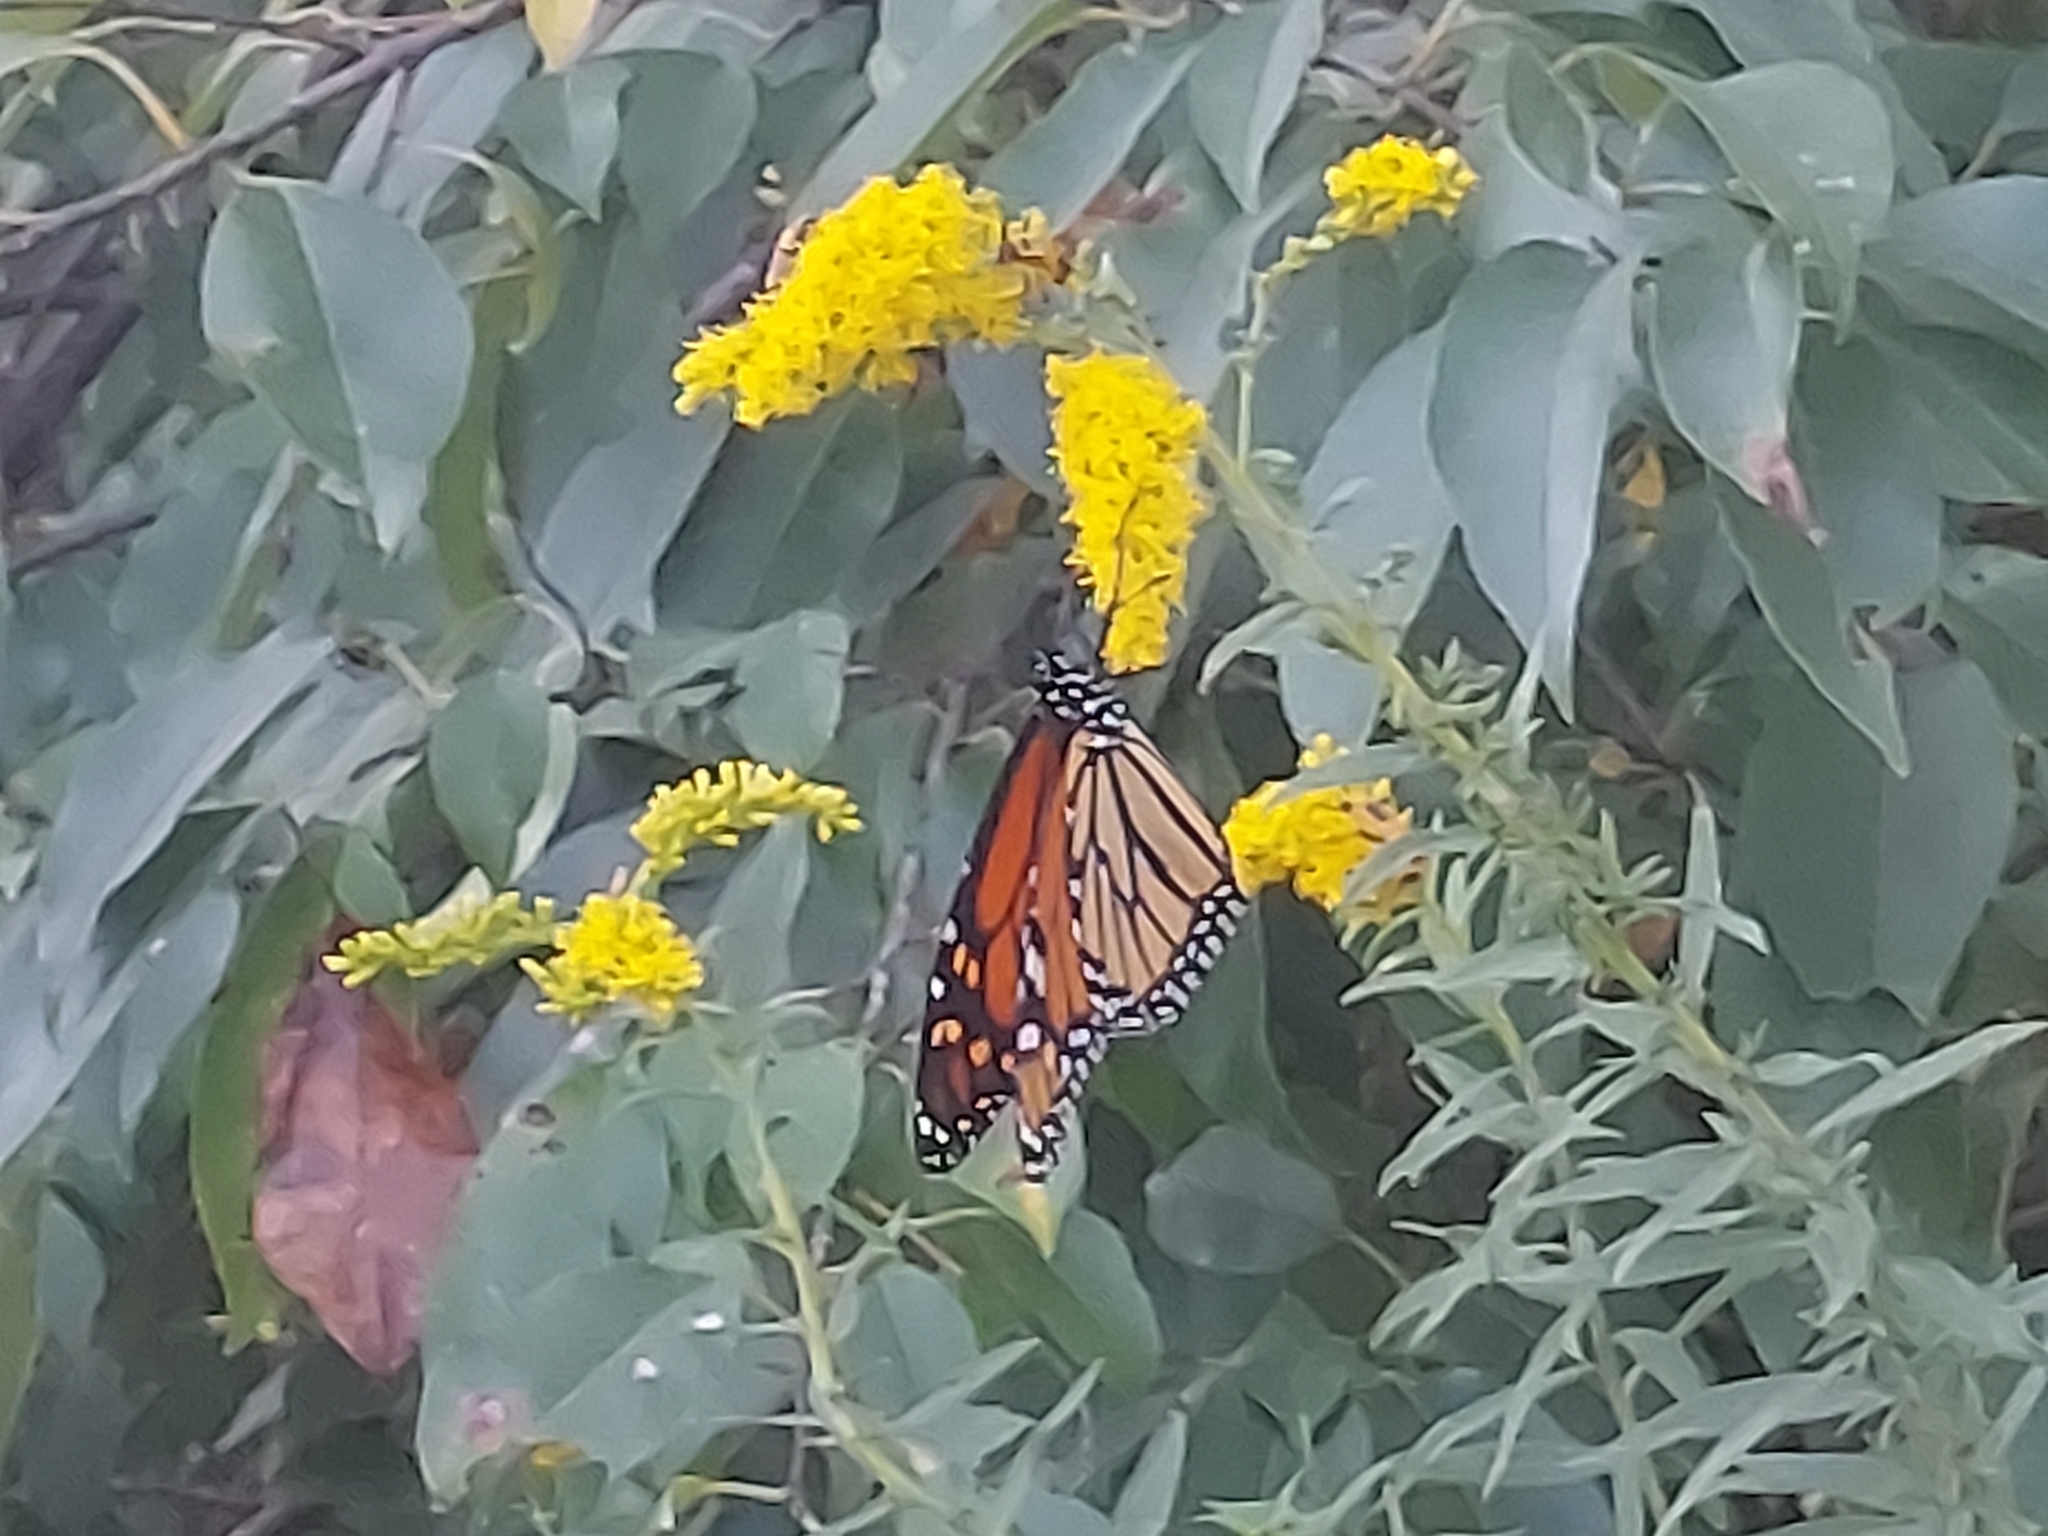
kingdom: Animalia
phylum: Arthropoda
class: Insecta
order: Lepidoptera
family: Nymphalidae
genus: Danaus
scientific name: Danaus plexippus
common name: Monarch
